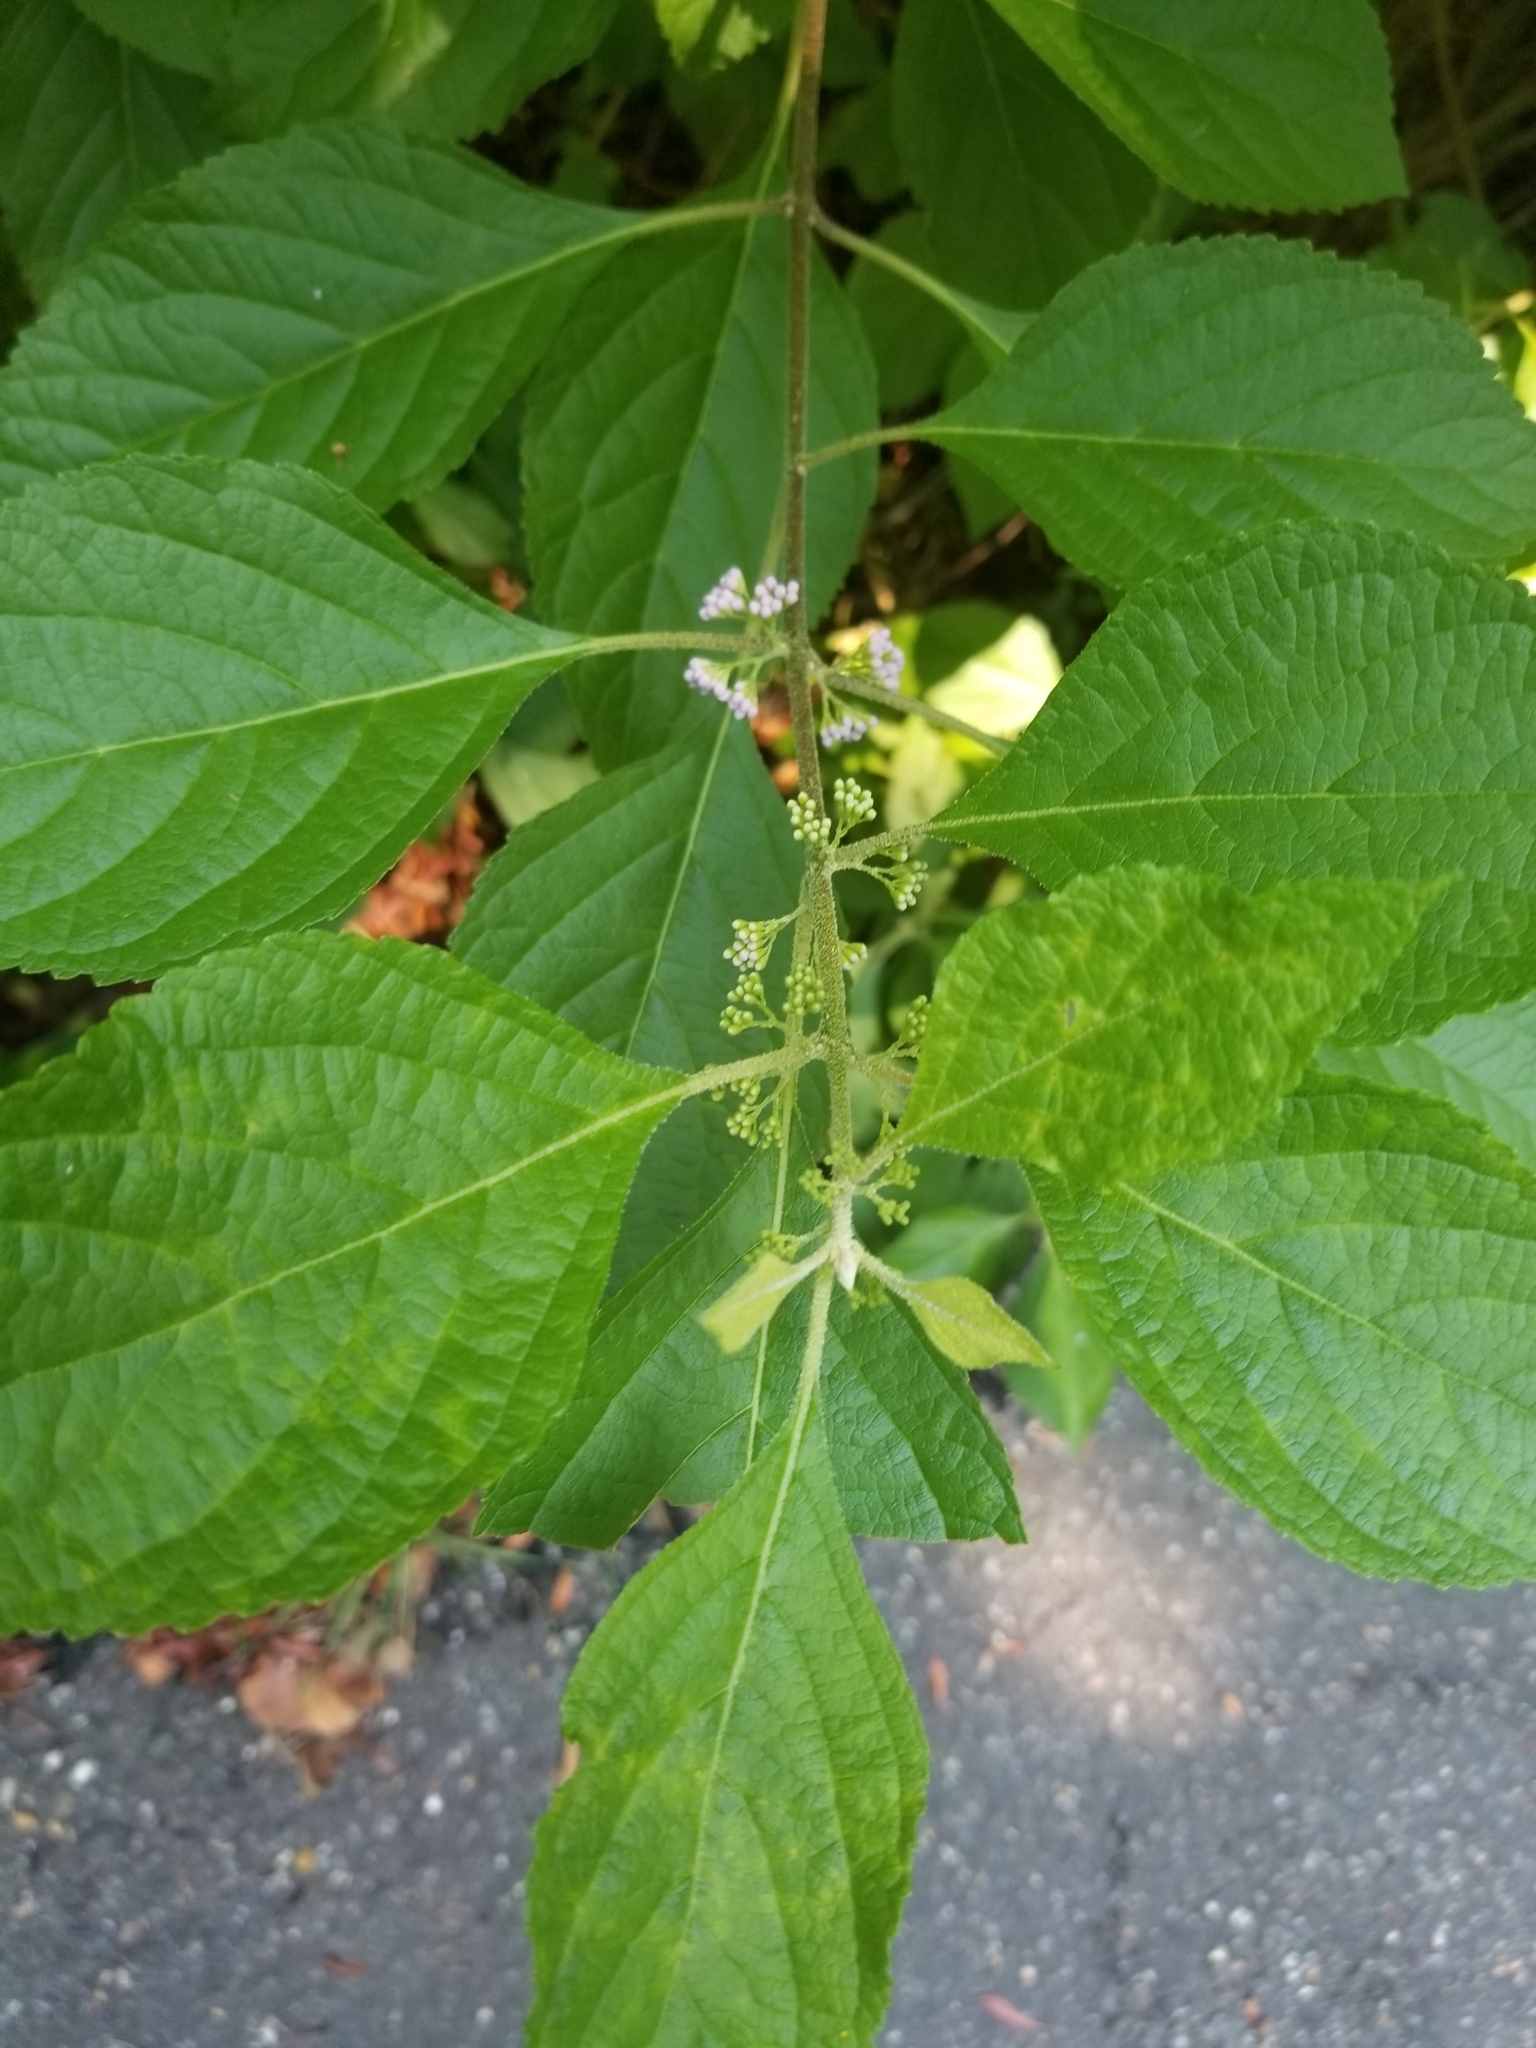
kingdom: Plantae
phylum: Tracheophyta
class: Magnoliopsida
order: Lamiales
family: Lamiaceae
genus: Callicarpa
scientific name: Callicarpa americana
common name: American beautyberry
